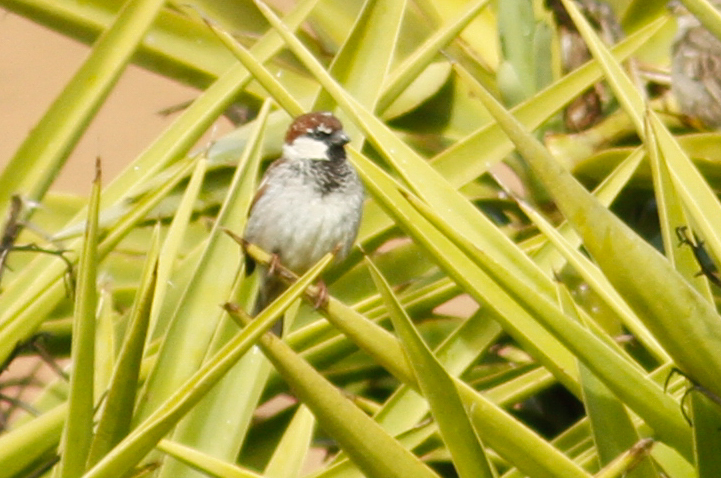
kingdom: Animalia
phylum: Chordata
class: Aves
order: Passeriformes
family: Passeridae
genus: Passer
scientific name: Passer italiae
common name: Italian sparrow
